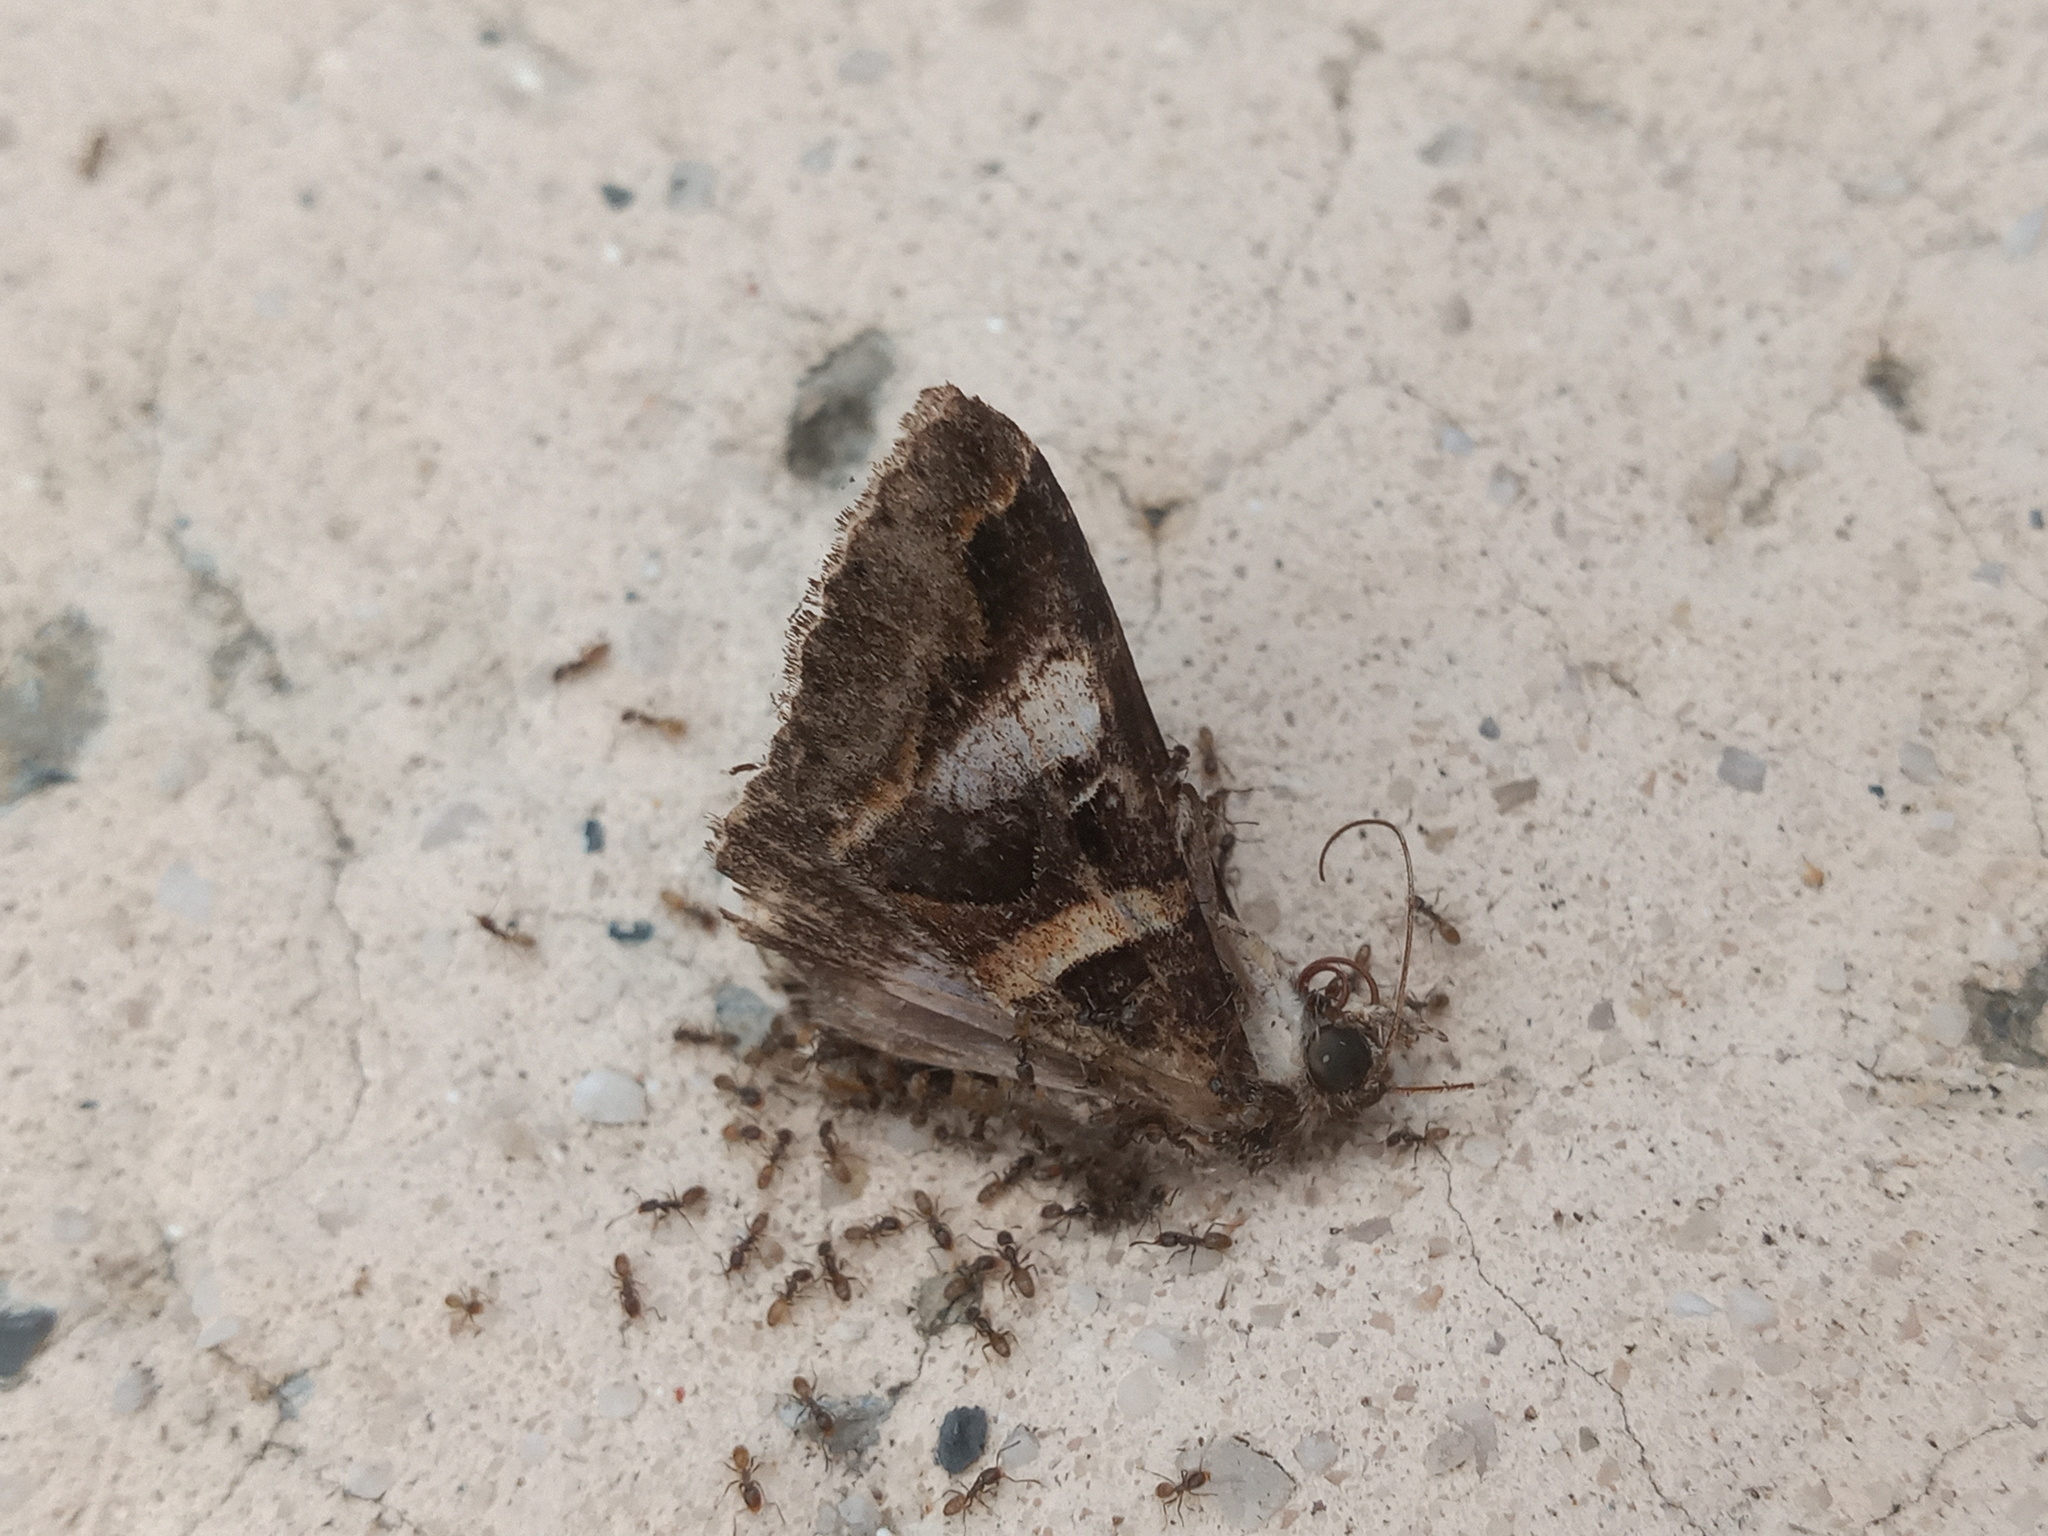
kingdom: Animalia
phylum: Arthropoda
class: Insecta
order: Lepidoptera
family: Erebidae
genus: Melipotis
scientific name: Melipotis perpendicularis
